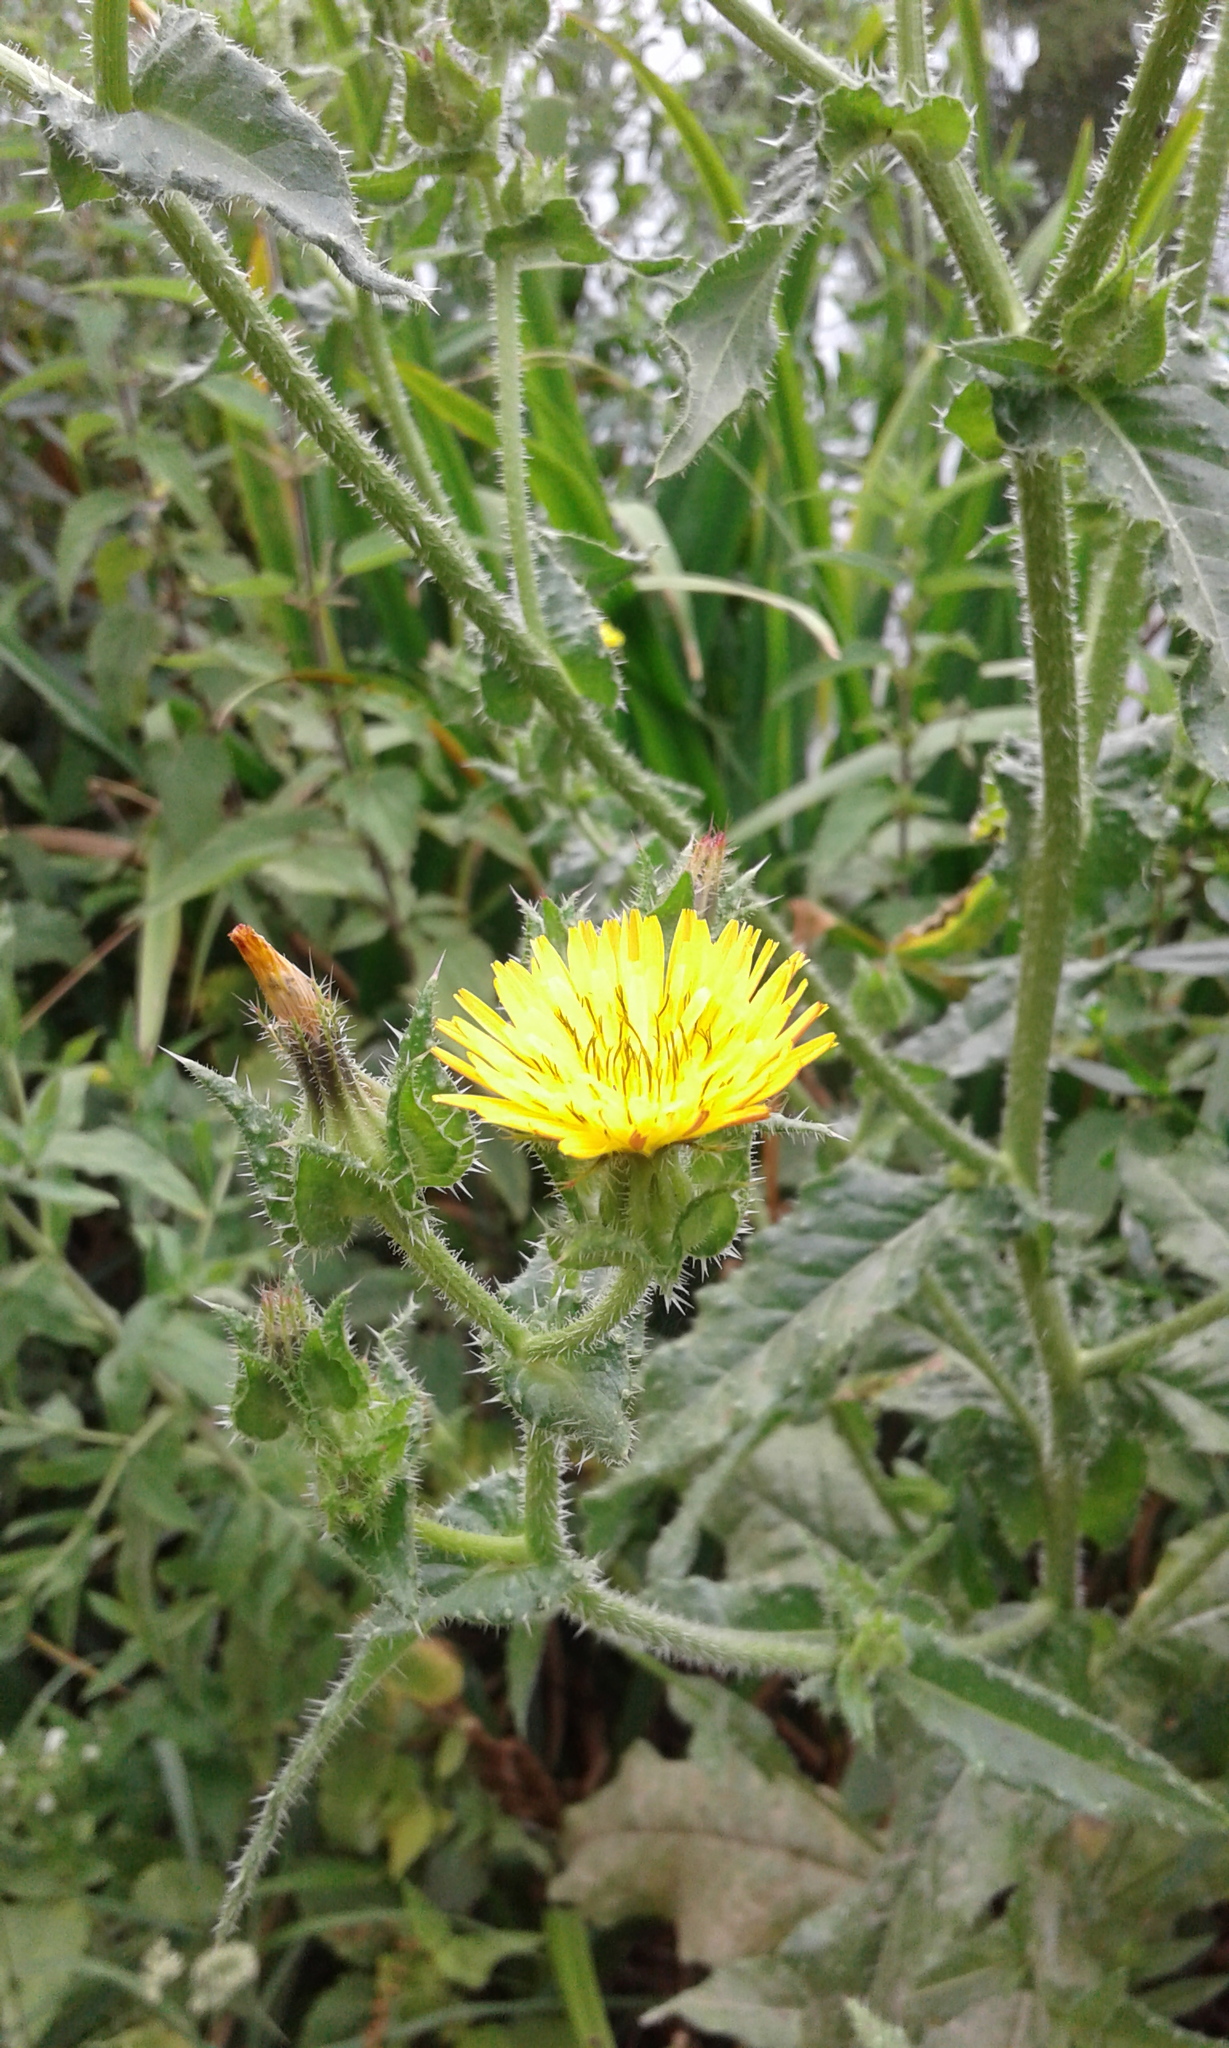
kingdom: Plantae
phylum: Tracheophyta
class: Magnoliopsida
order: Asterales
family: Asteraceae
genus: Helminthotheca
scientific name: Helminthotheca echioides
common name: Ox-tongue
